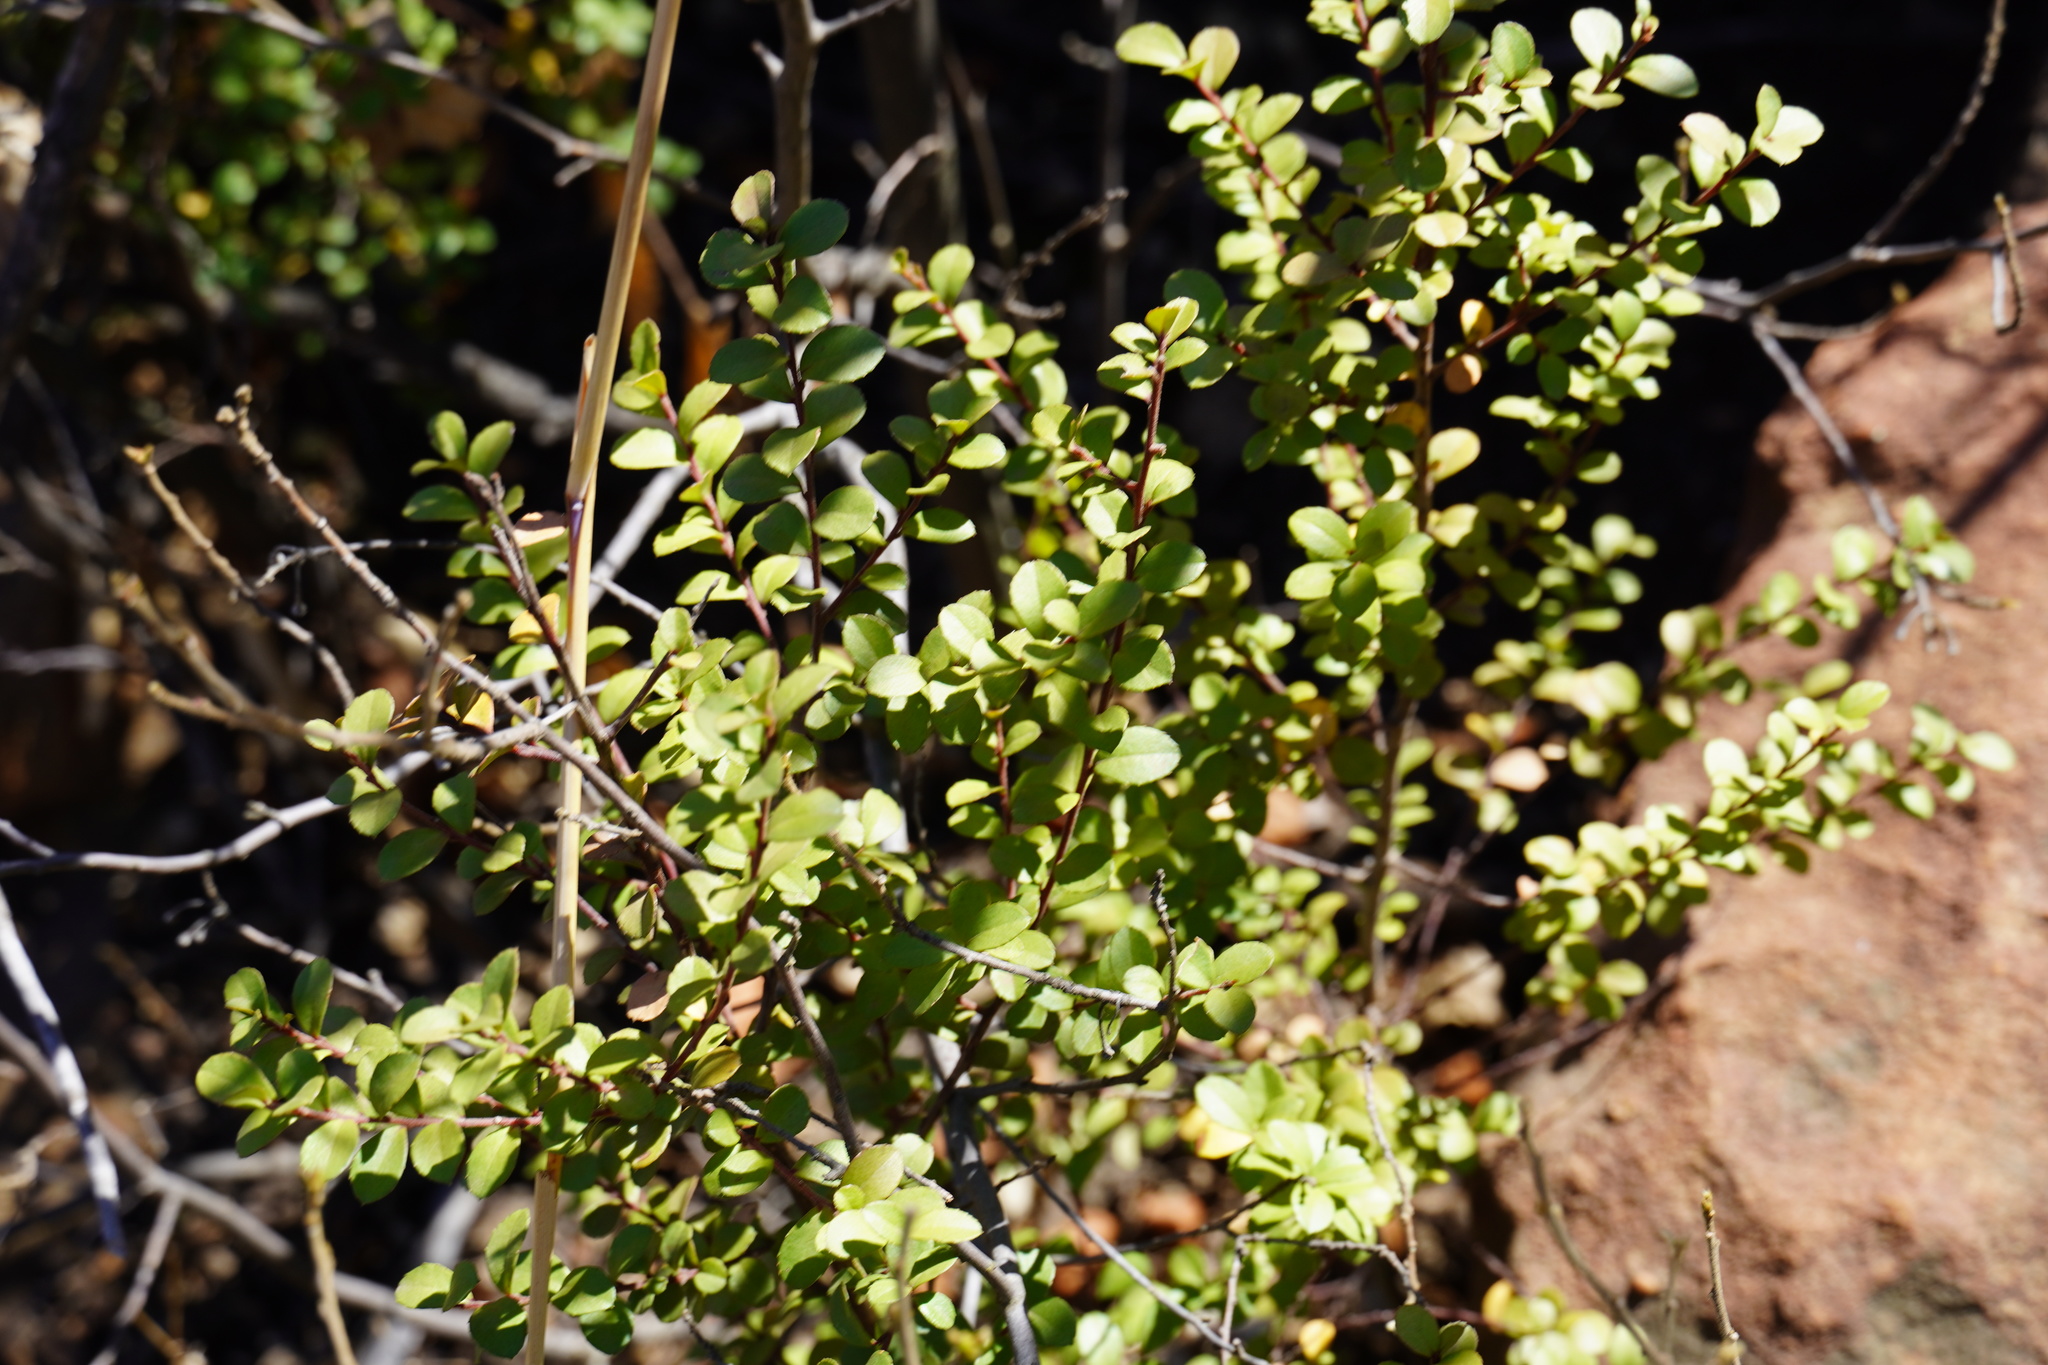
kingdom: Plantae
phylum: Tracheophyta
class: Magnoliopsida
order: Ericales
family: Primulaceae
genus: Myrsine
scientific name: Myrsine africana
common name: African-boxwood
